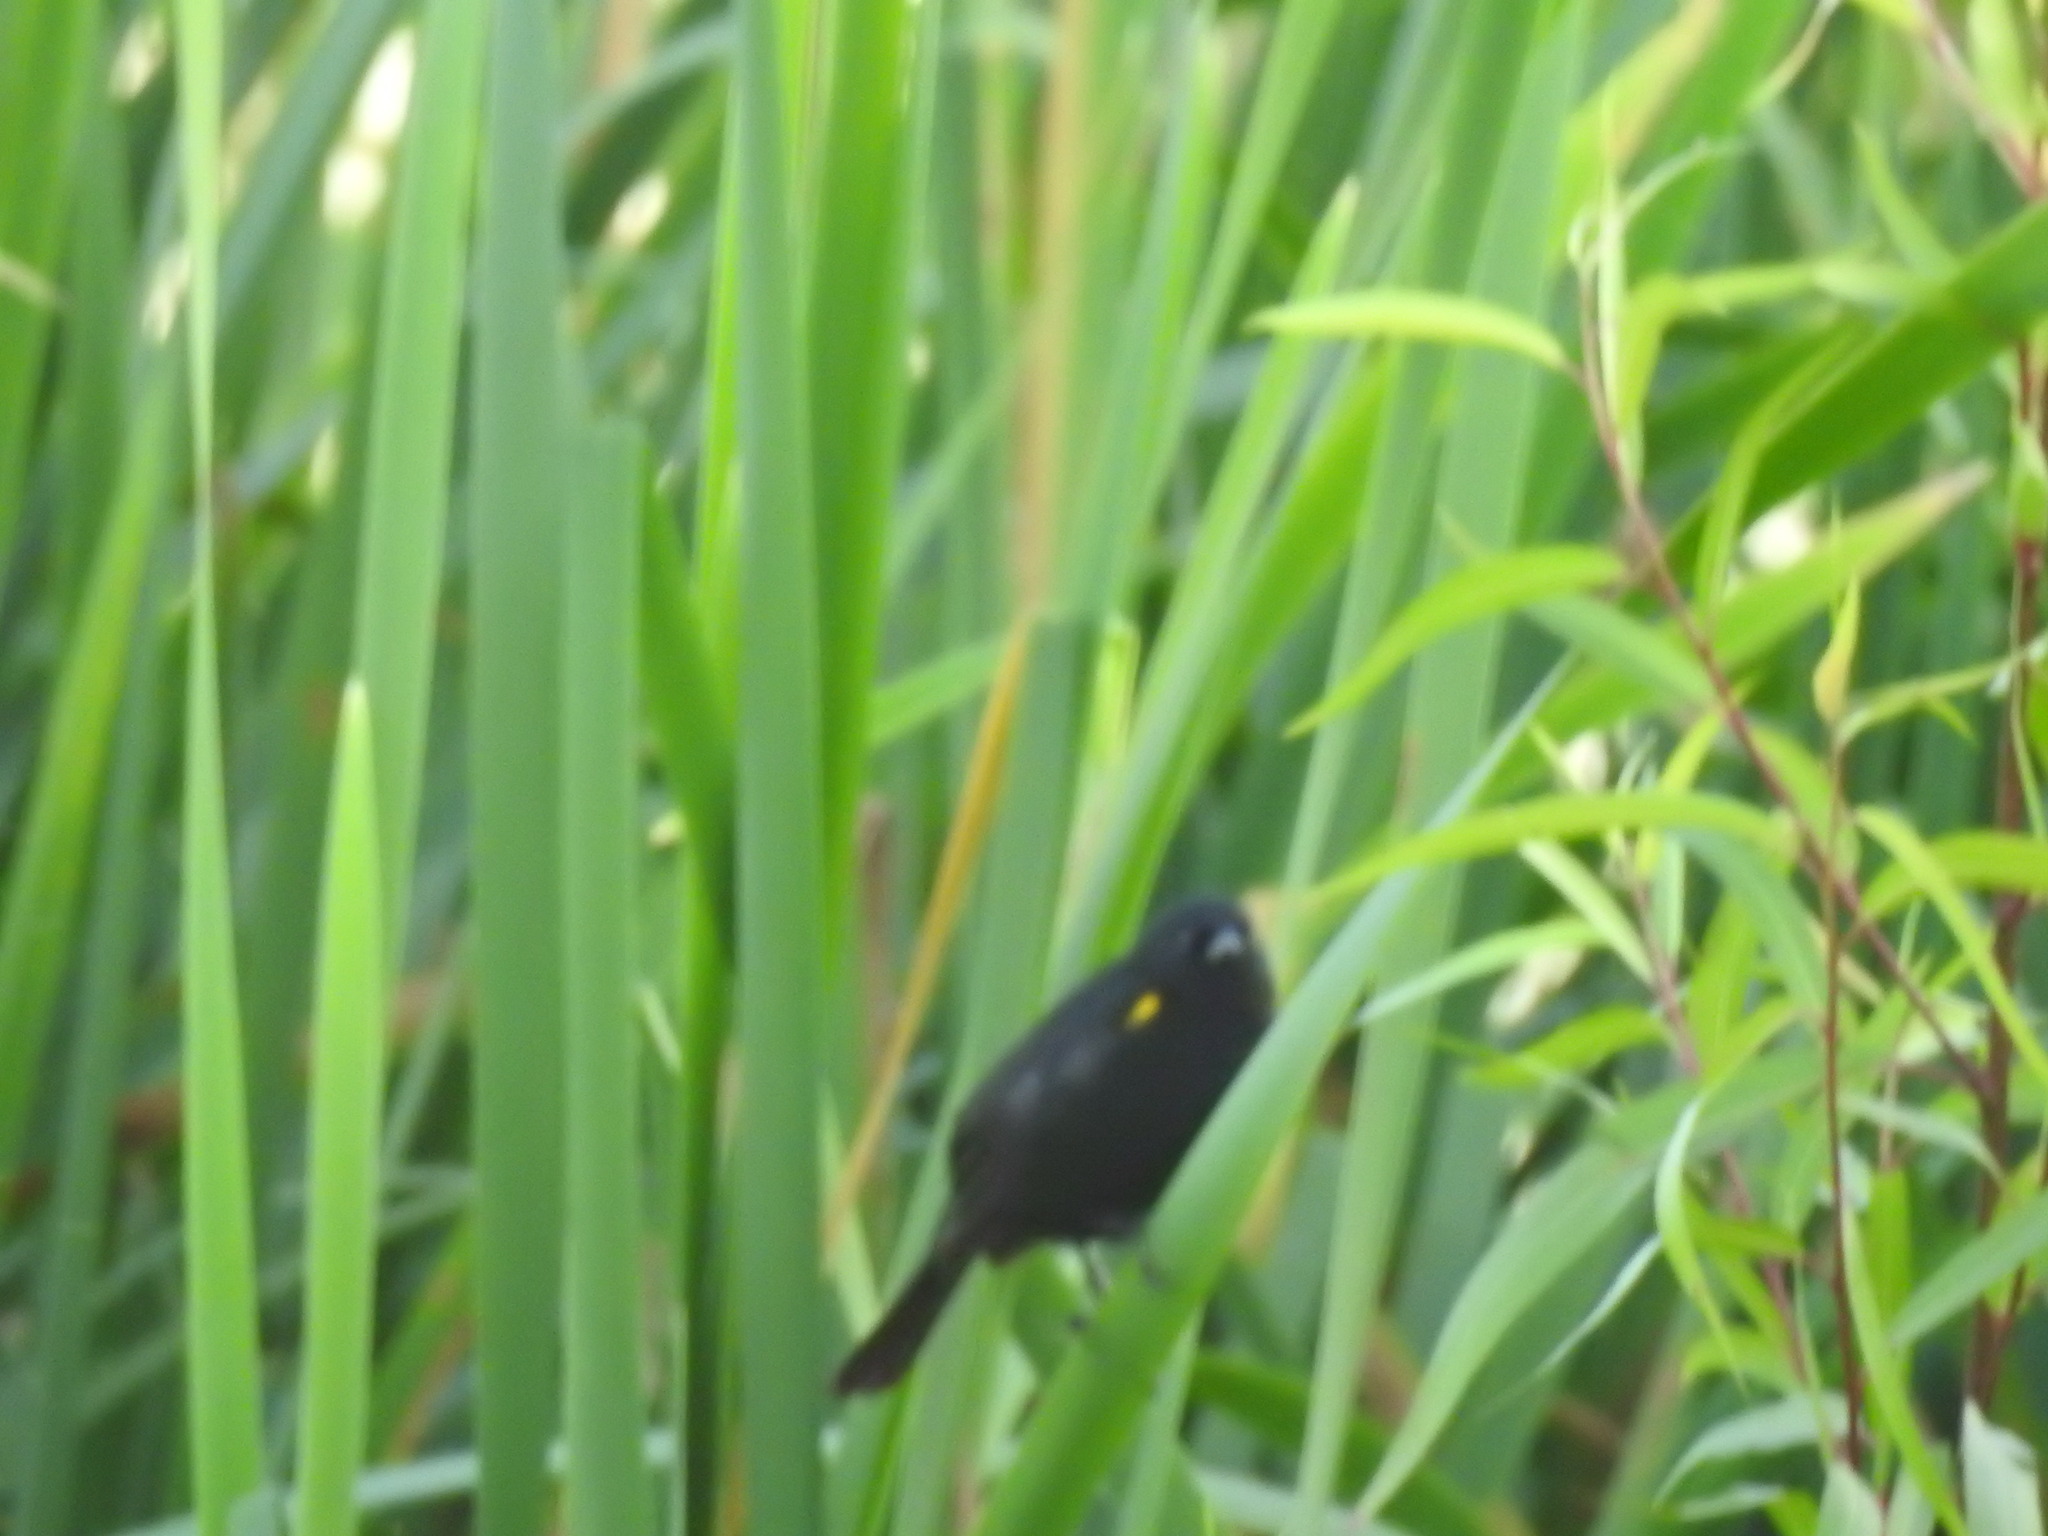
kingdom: Animalia
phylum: Chordata
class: Aves
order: Passeriformes
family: Icteridae
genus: Agelasticus
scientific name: Agelasticus thilius
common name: Yellow-winged blackbird
